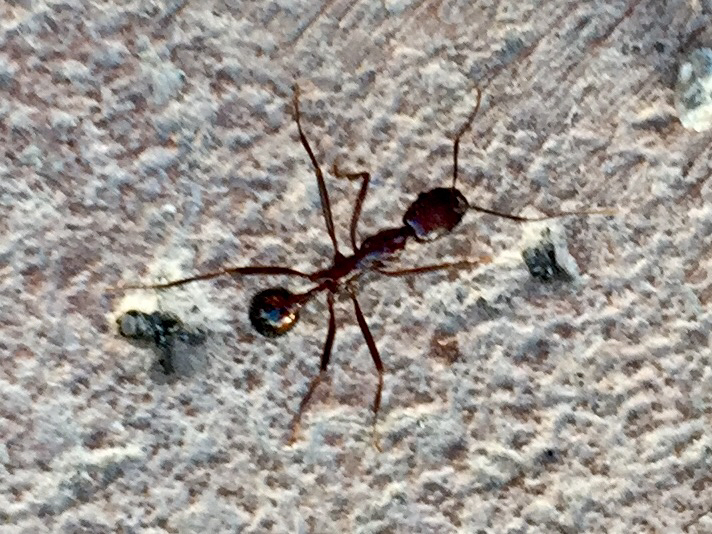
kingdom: Animalia
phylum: Arthropoda
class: Insecta
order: Hymenoptera
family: Formicidae
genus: Novomessor
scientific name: Novomessor cockerelli
